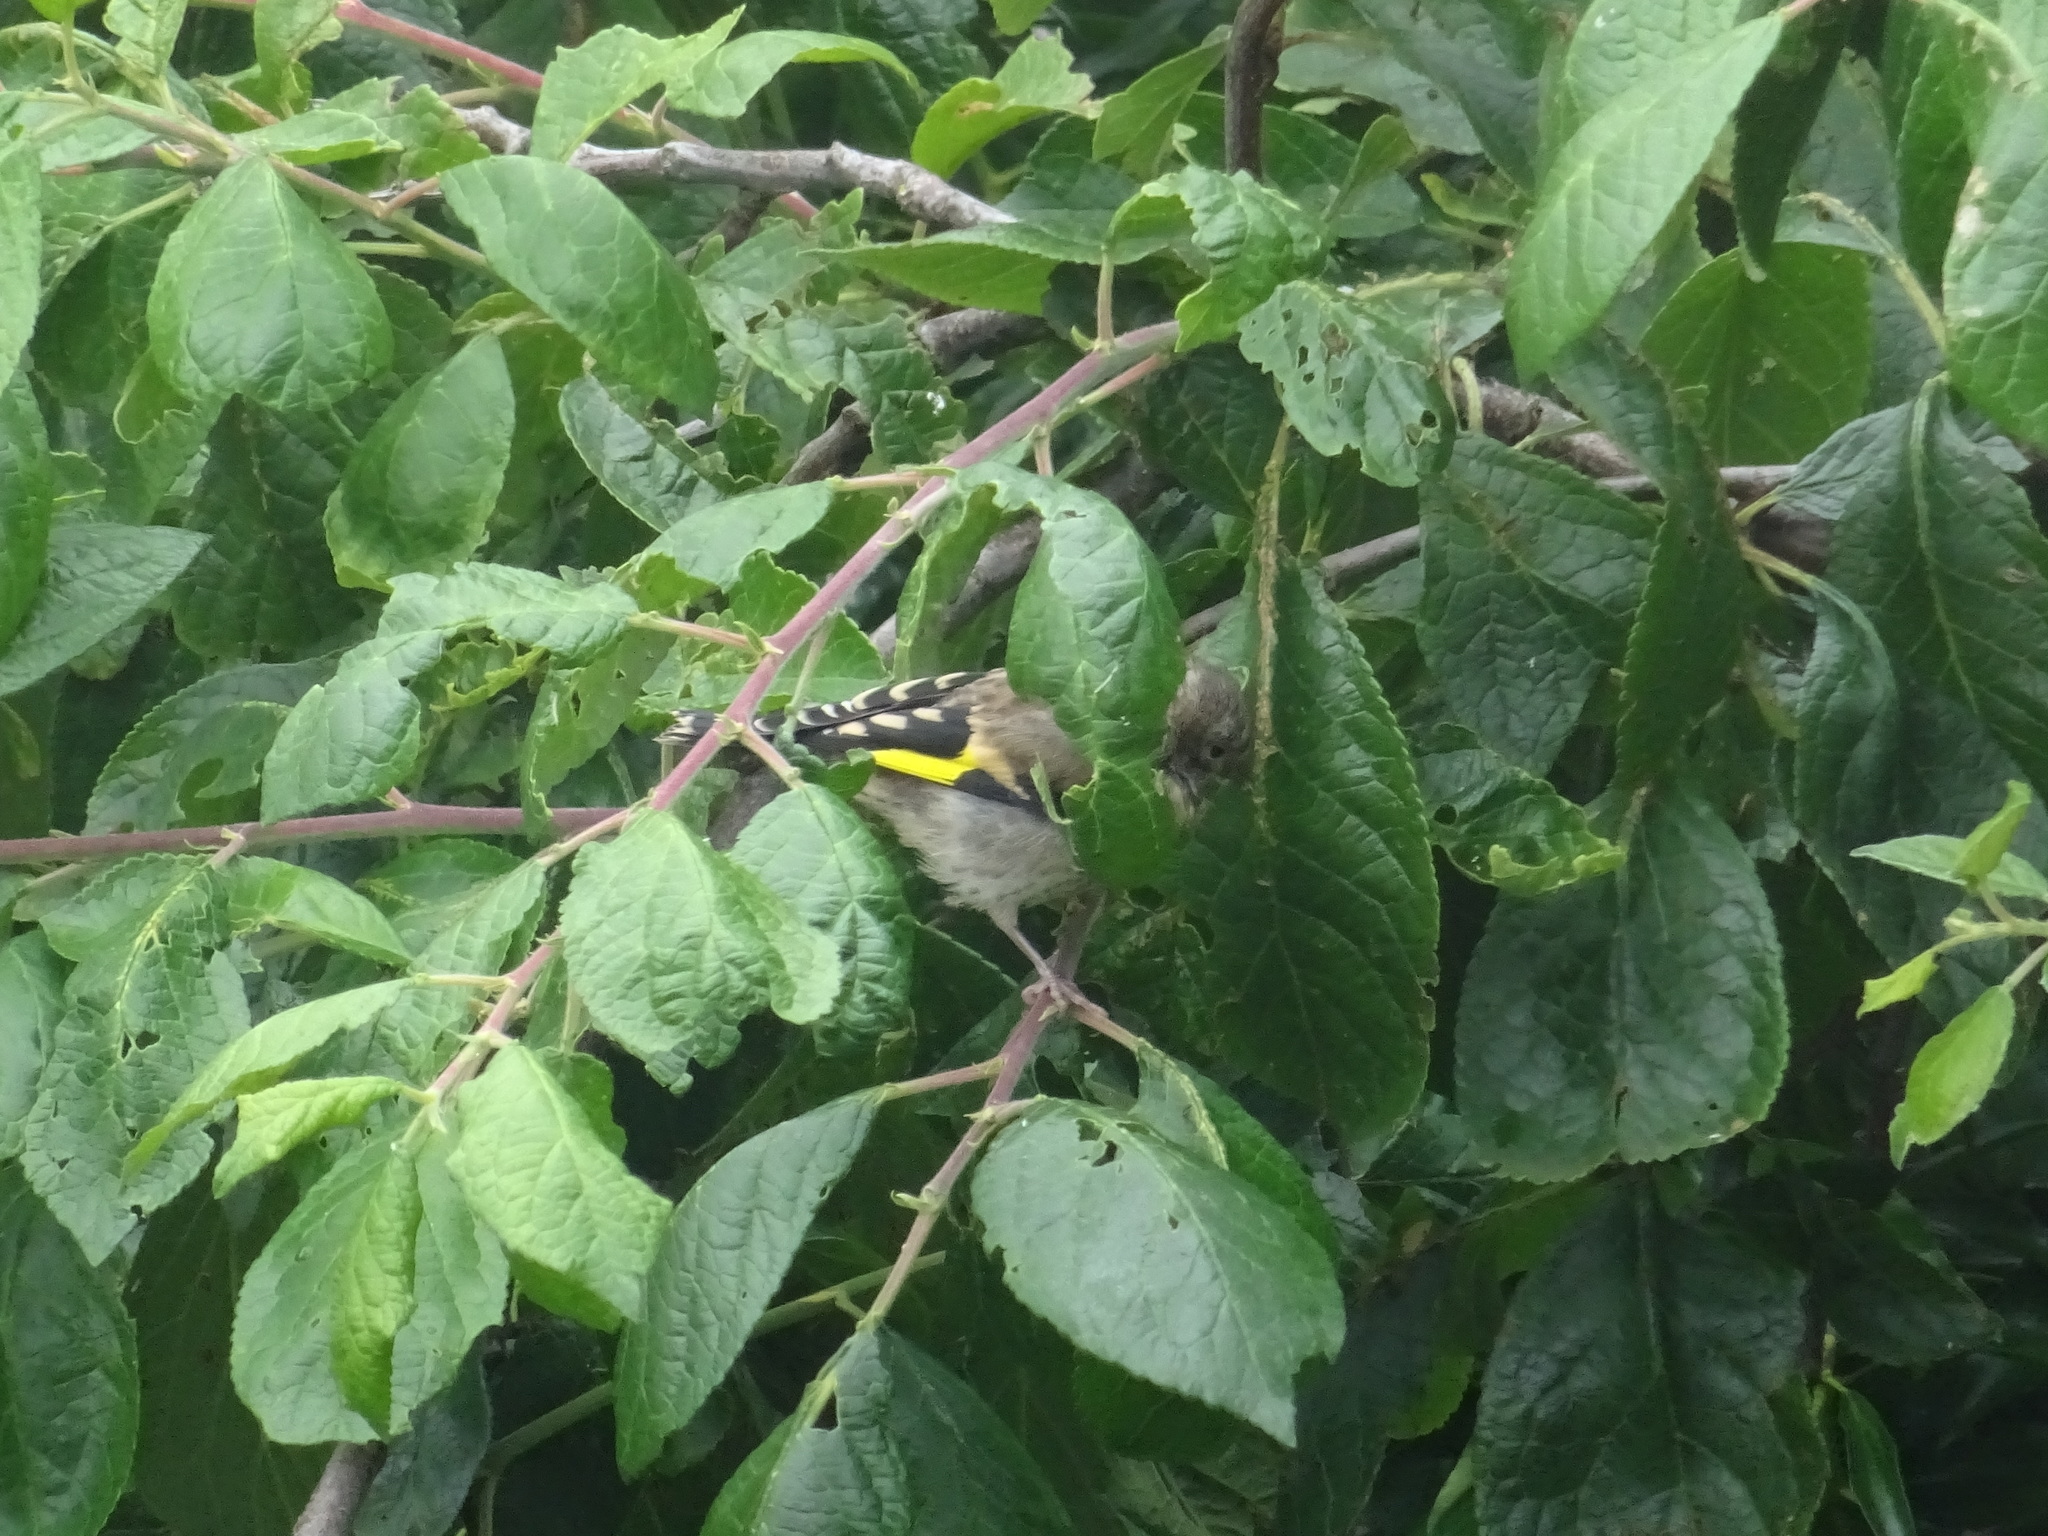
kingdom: Animalia
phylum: Chordata
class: Aves
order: Passeriformes
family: Fringillidae
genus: Carduelis
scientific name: Carduelis carduelis
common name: European goldfinch
